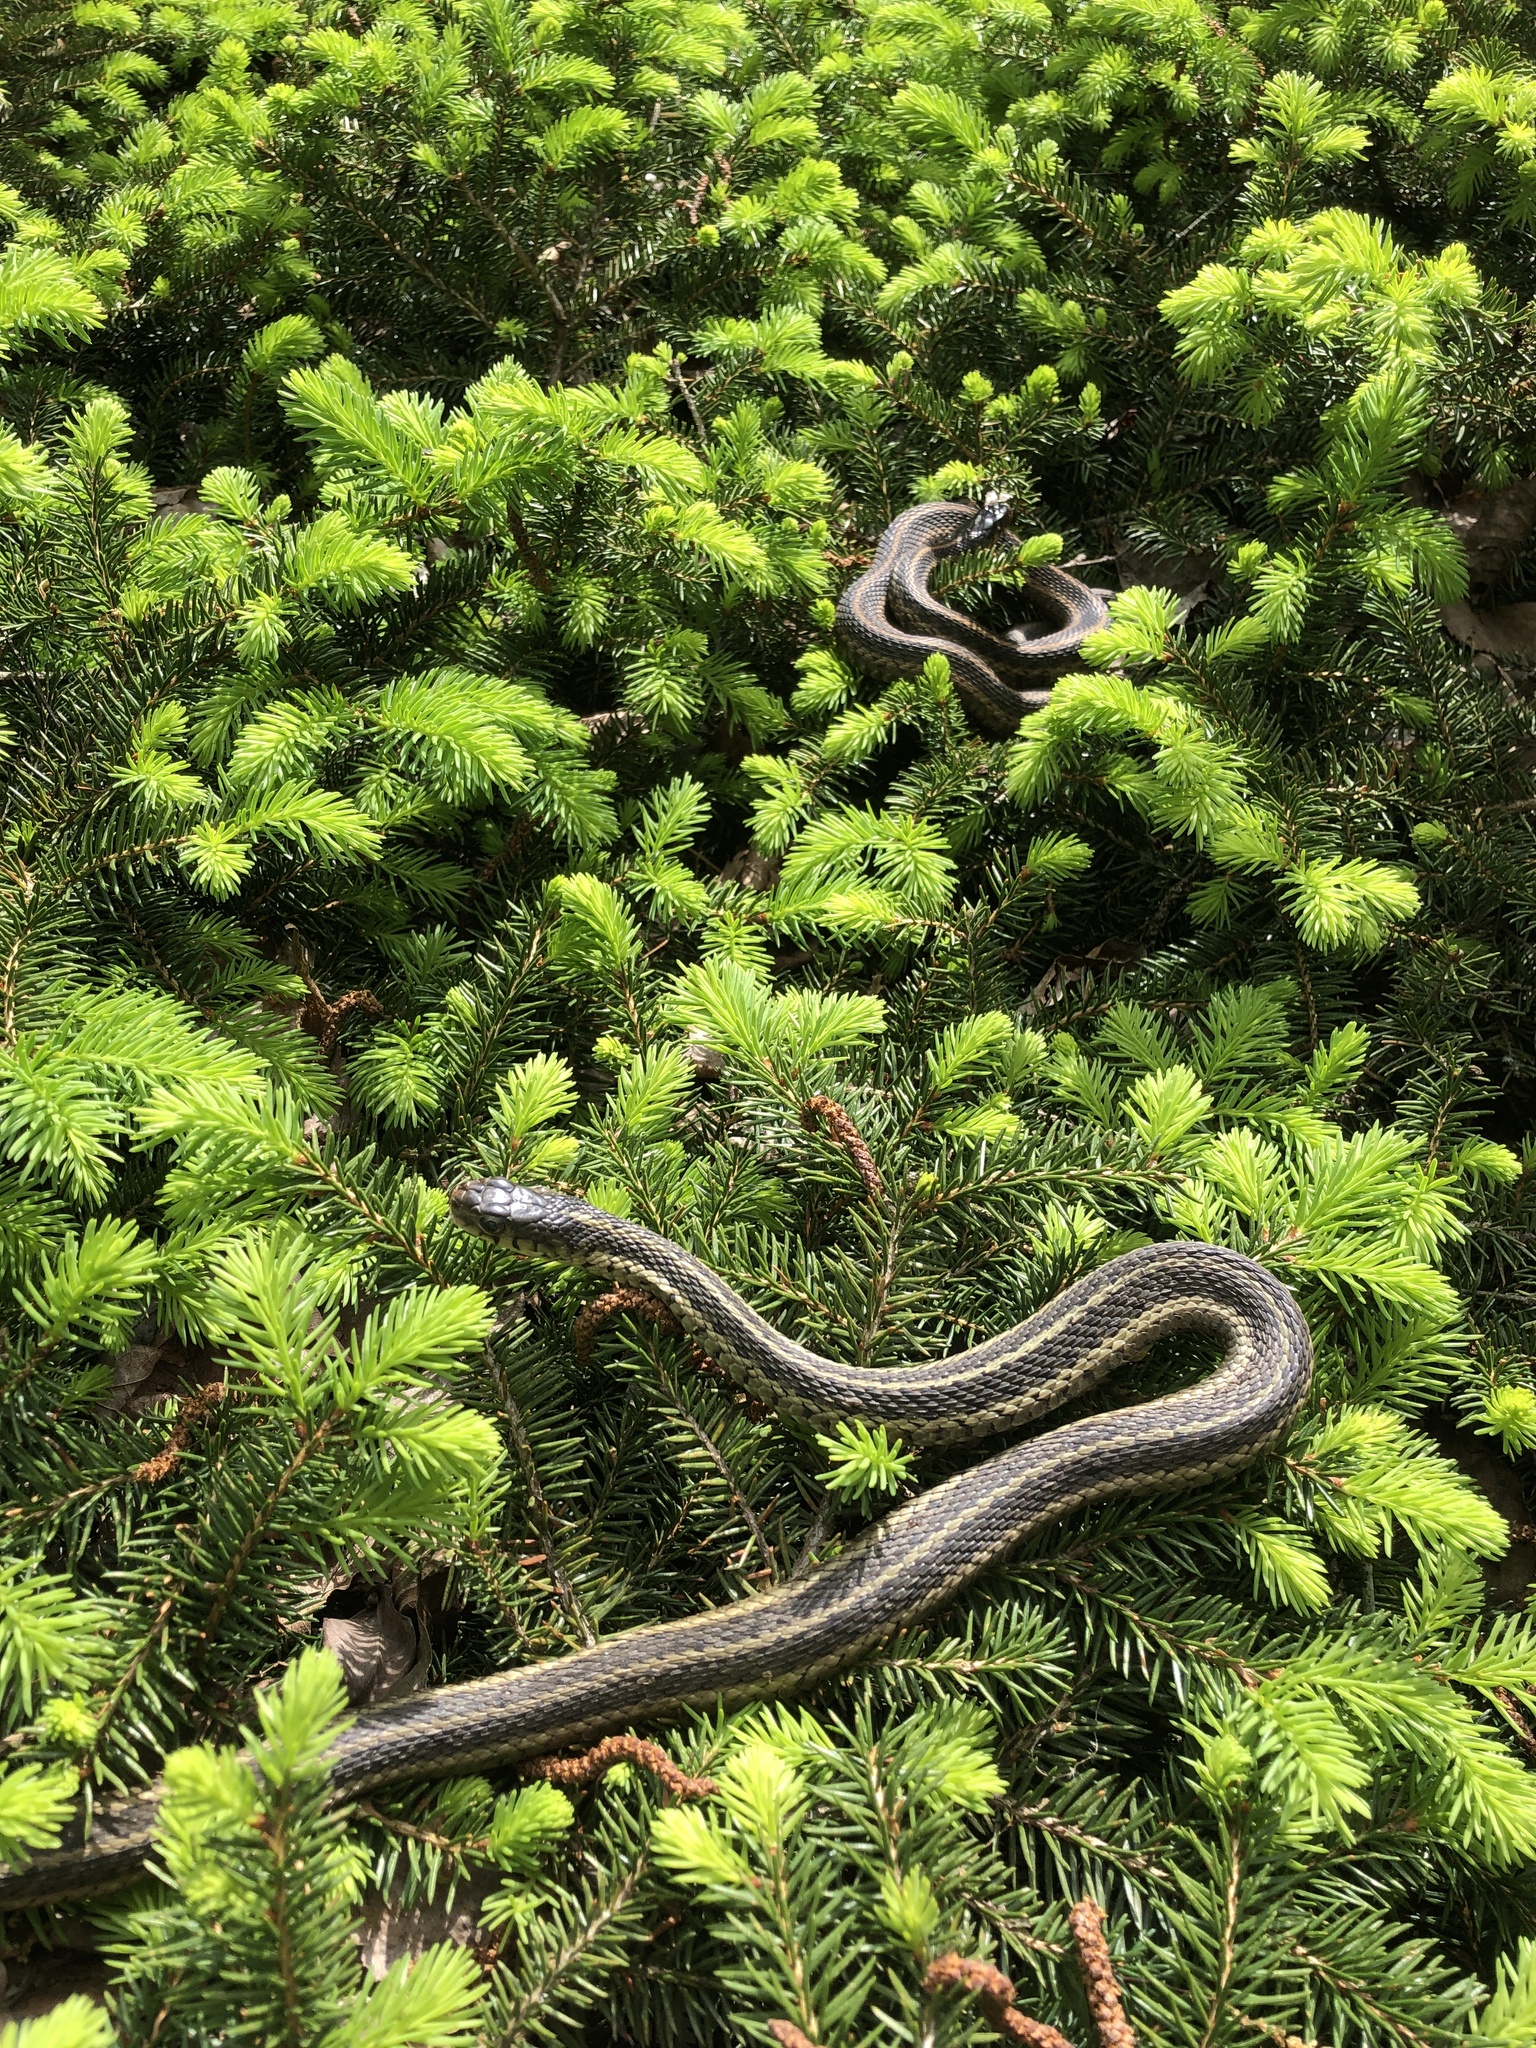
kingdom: Animalia
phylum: Chordata
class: Squamata
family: Colubridae
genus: Thamnophis
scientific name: Thamnophis sirtalis
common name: Common garter snake
